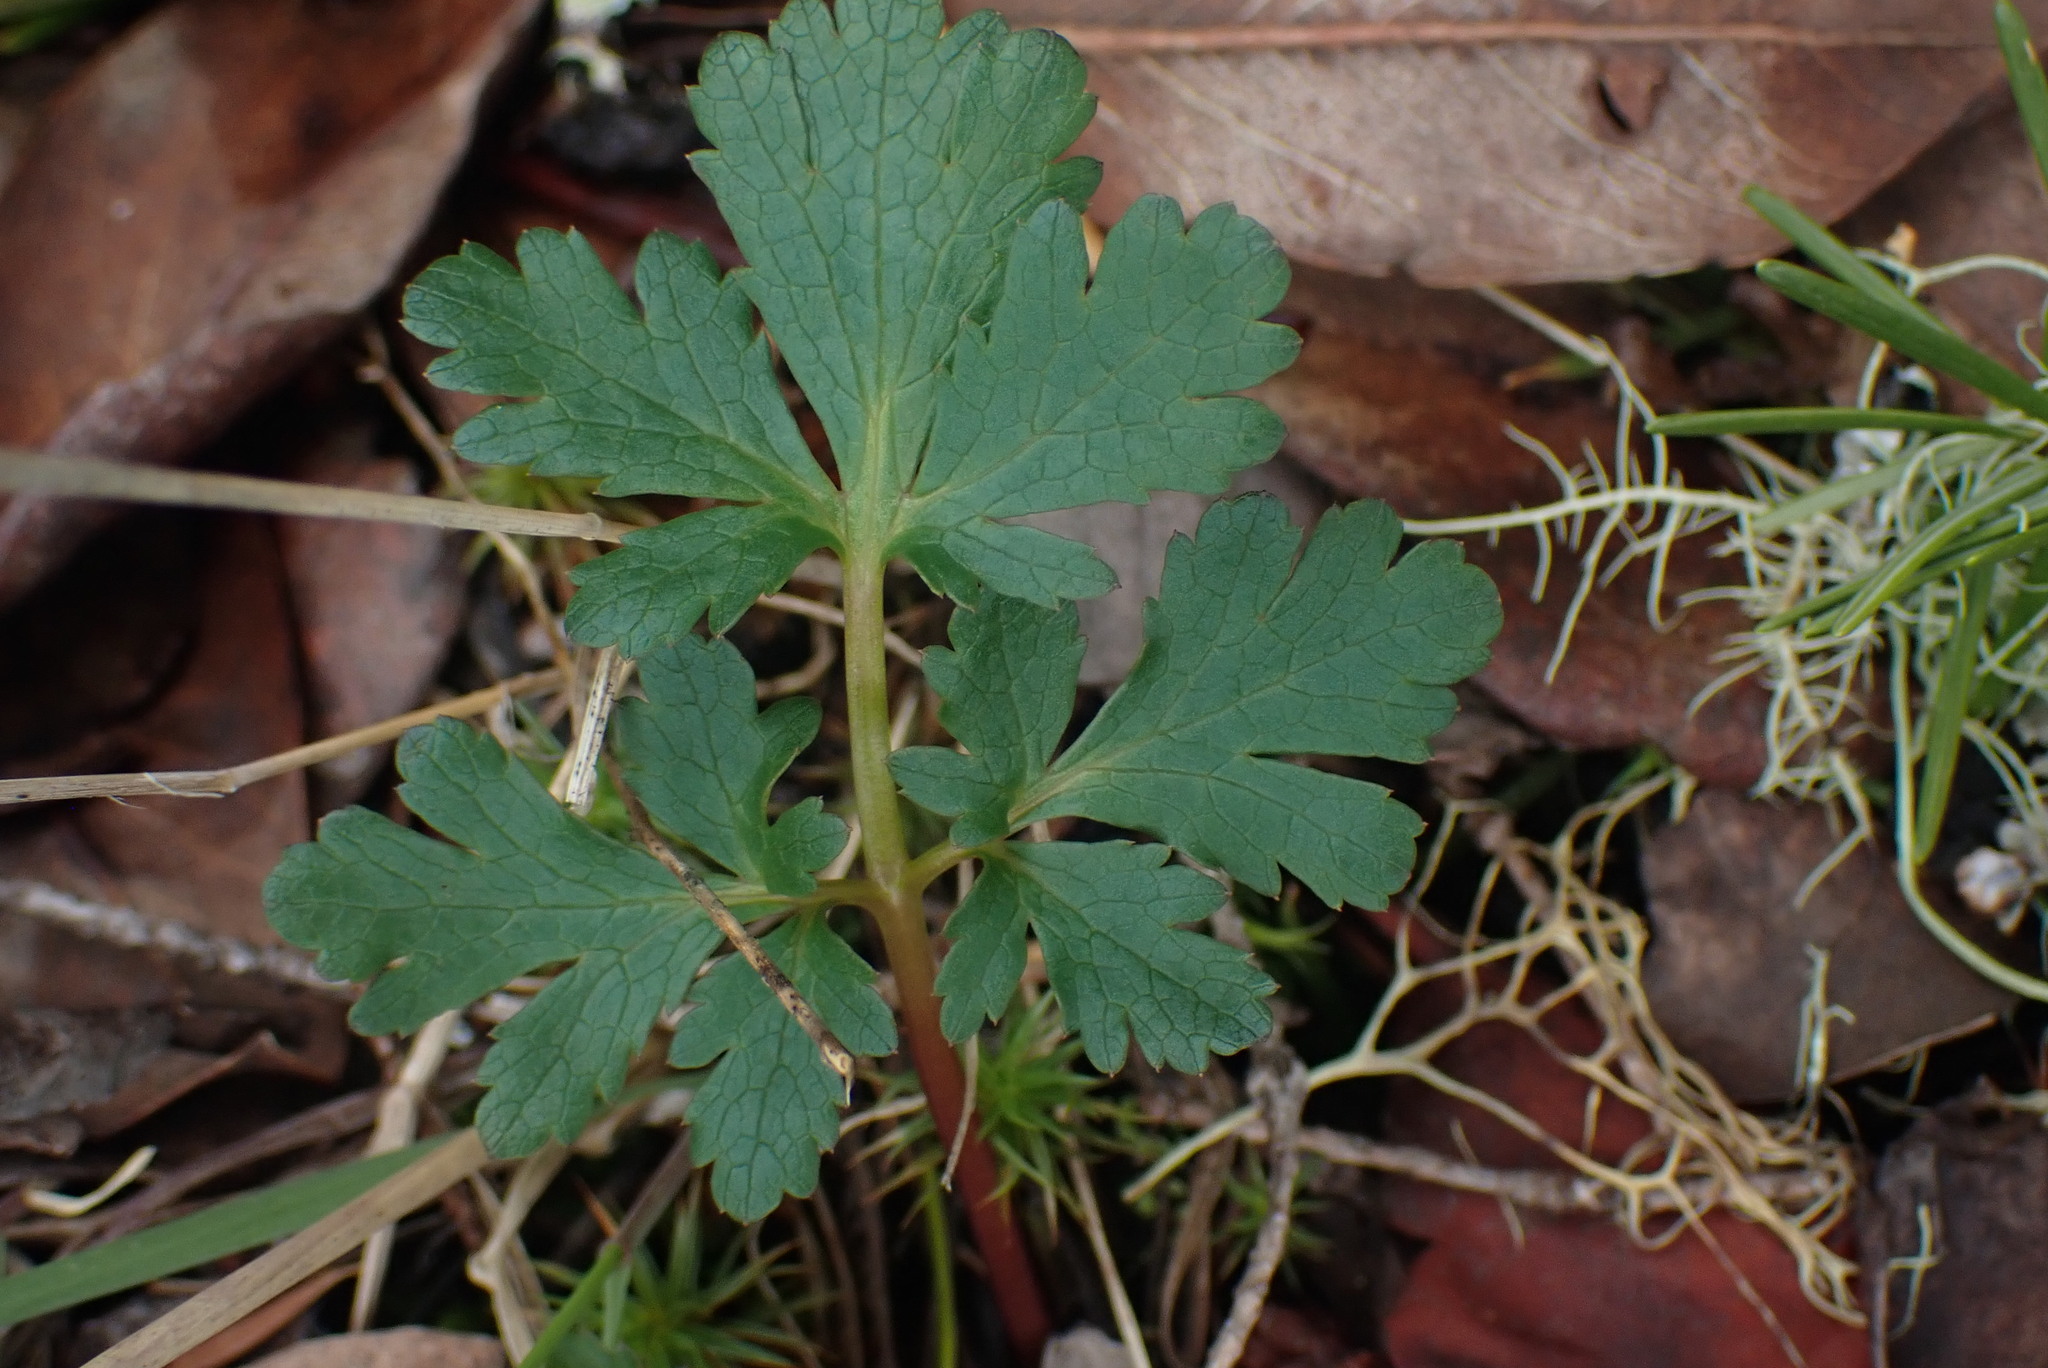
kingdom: Plantae
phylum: Tracheophyta
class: Magnoliopsida
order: Apiales
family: Apiaceae
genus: Sanicula
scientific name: Sanicula graveolens
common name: Sierra sanicle
